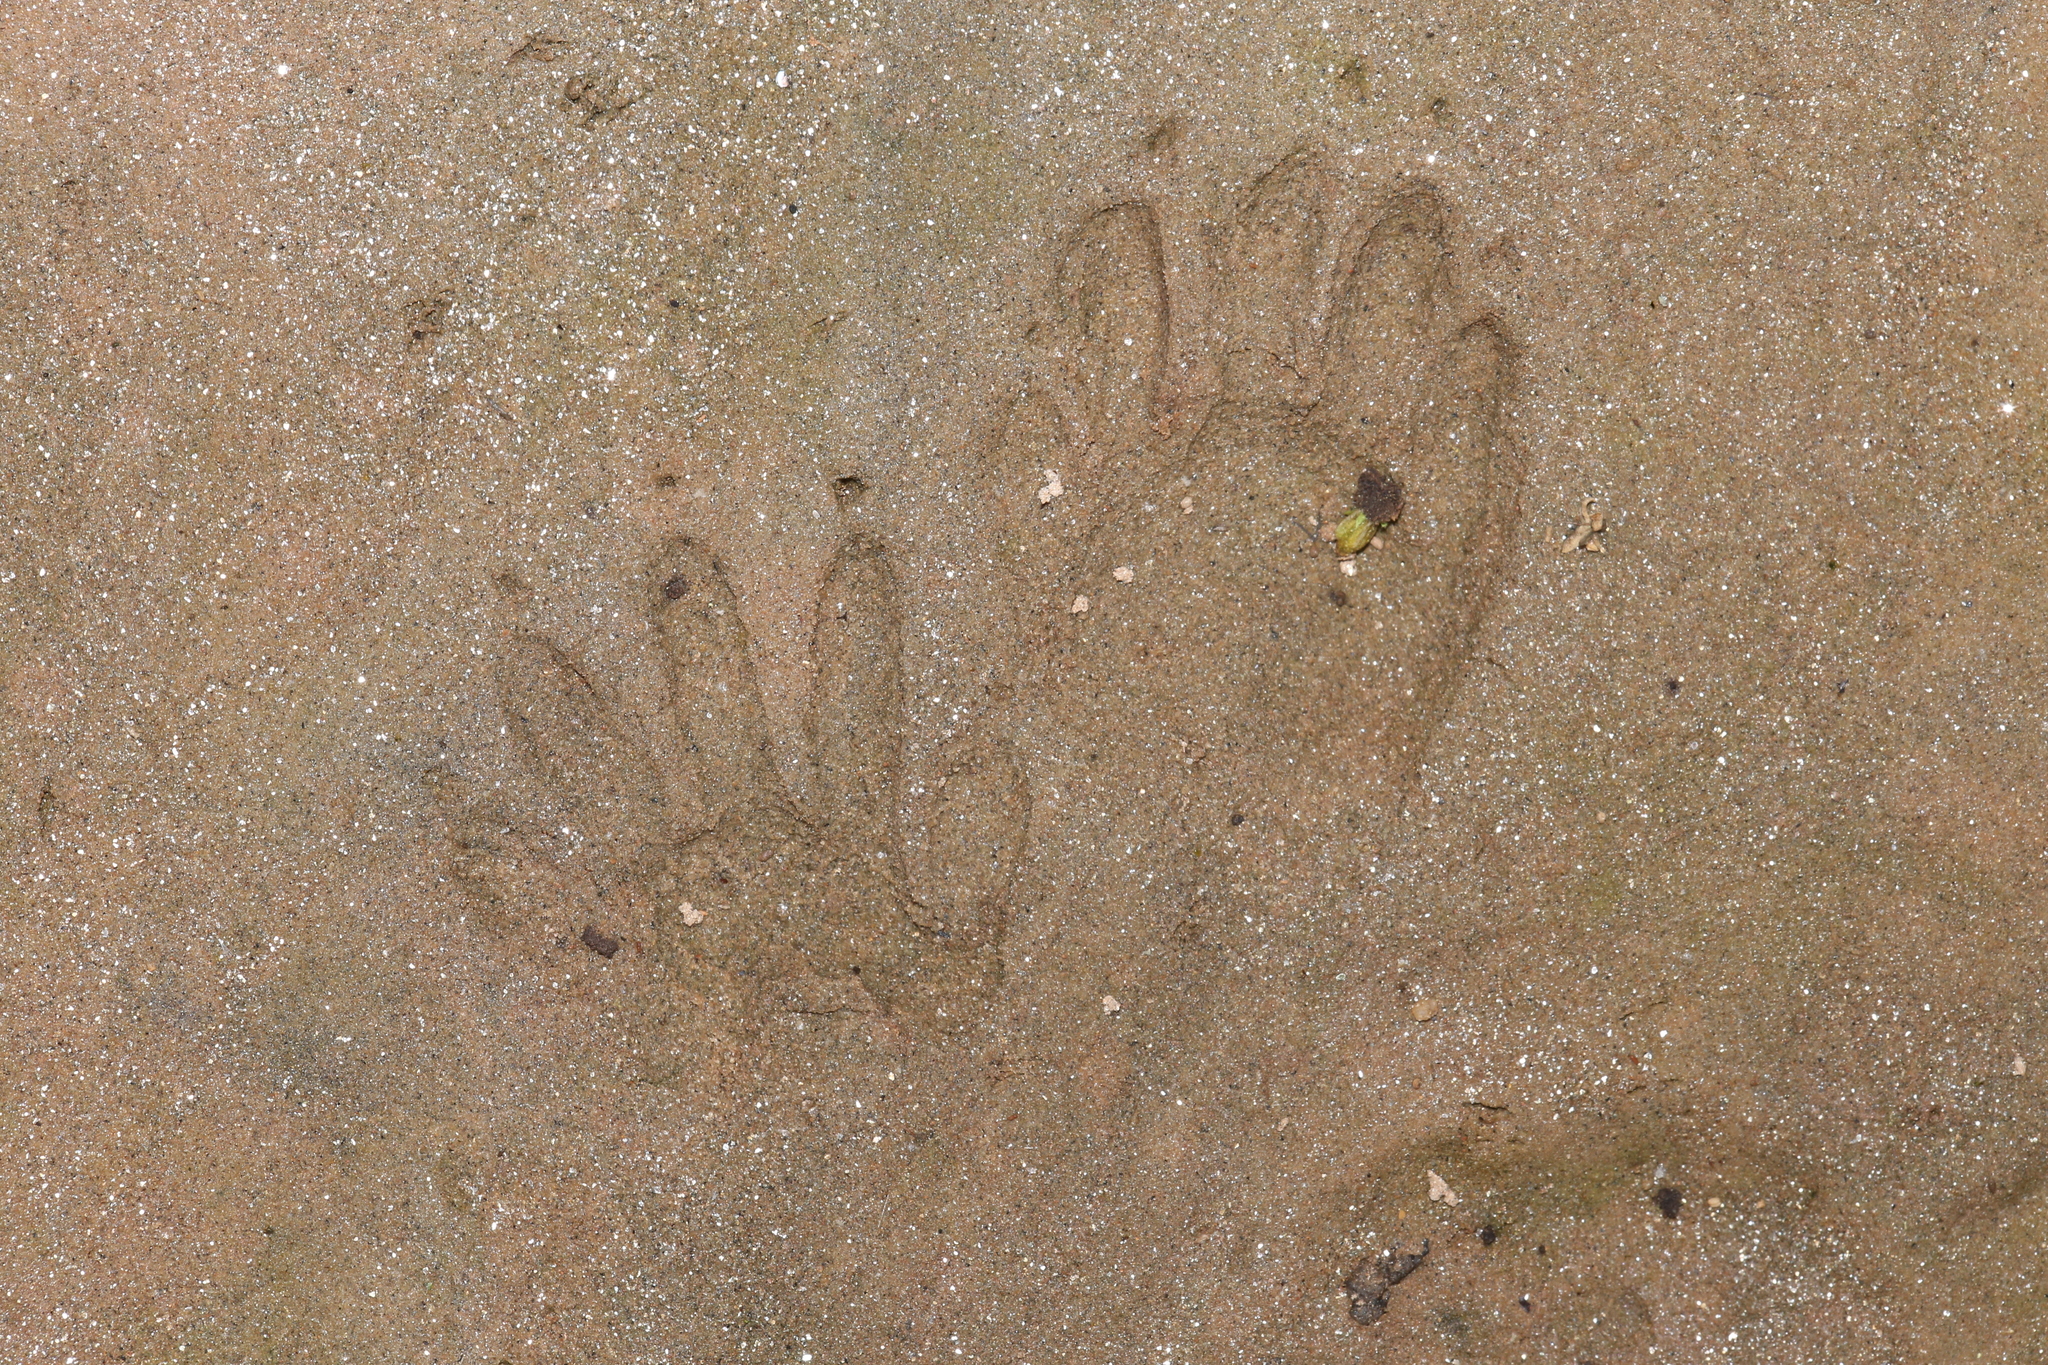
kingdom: Animalia
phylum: Chordata
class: Mammalia
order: Carnivora
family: Procyonidae
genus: Procyon
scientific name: Procyon lotor
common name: Raccoon
